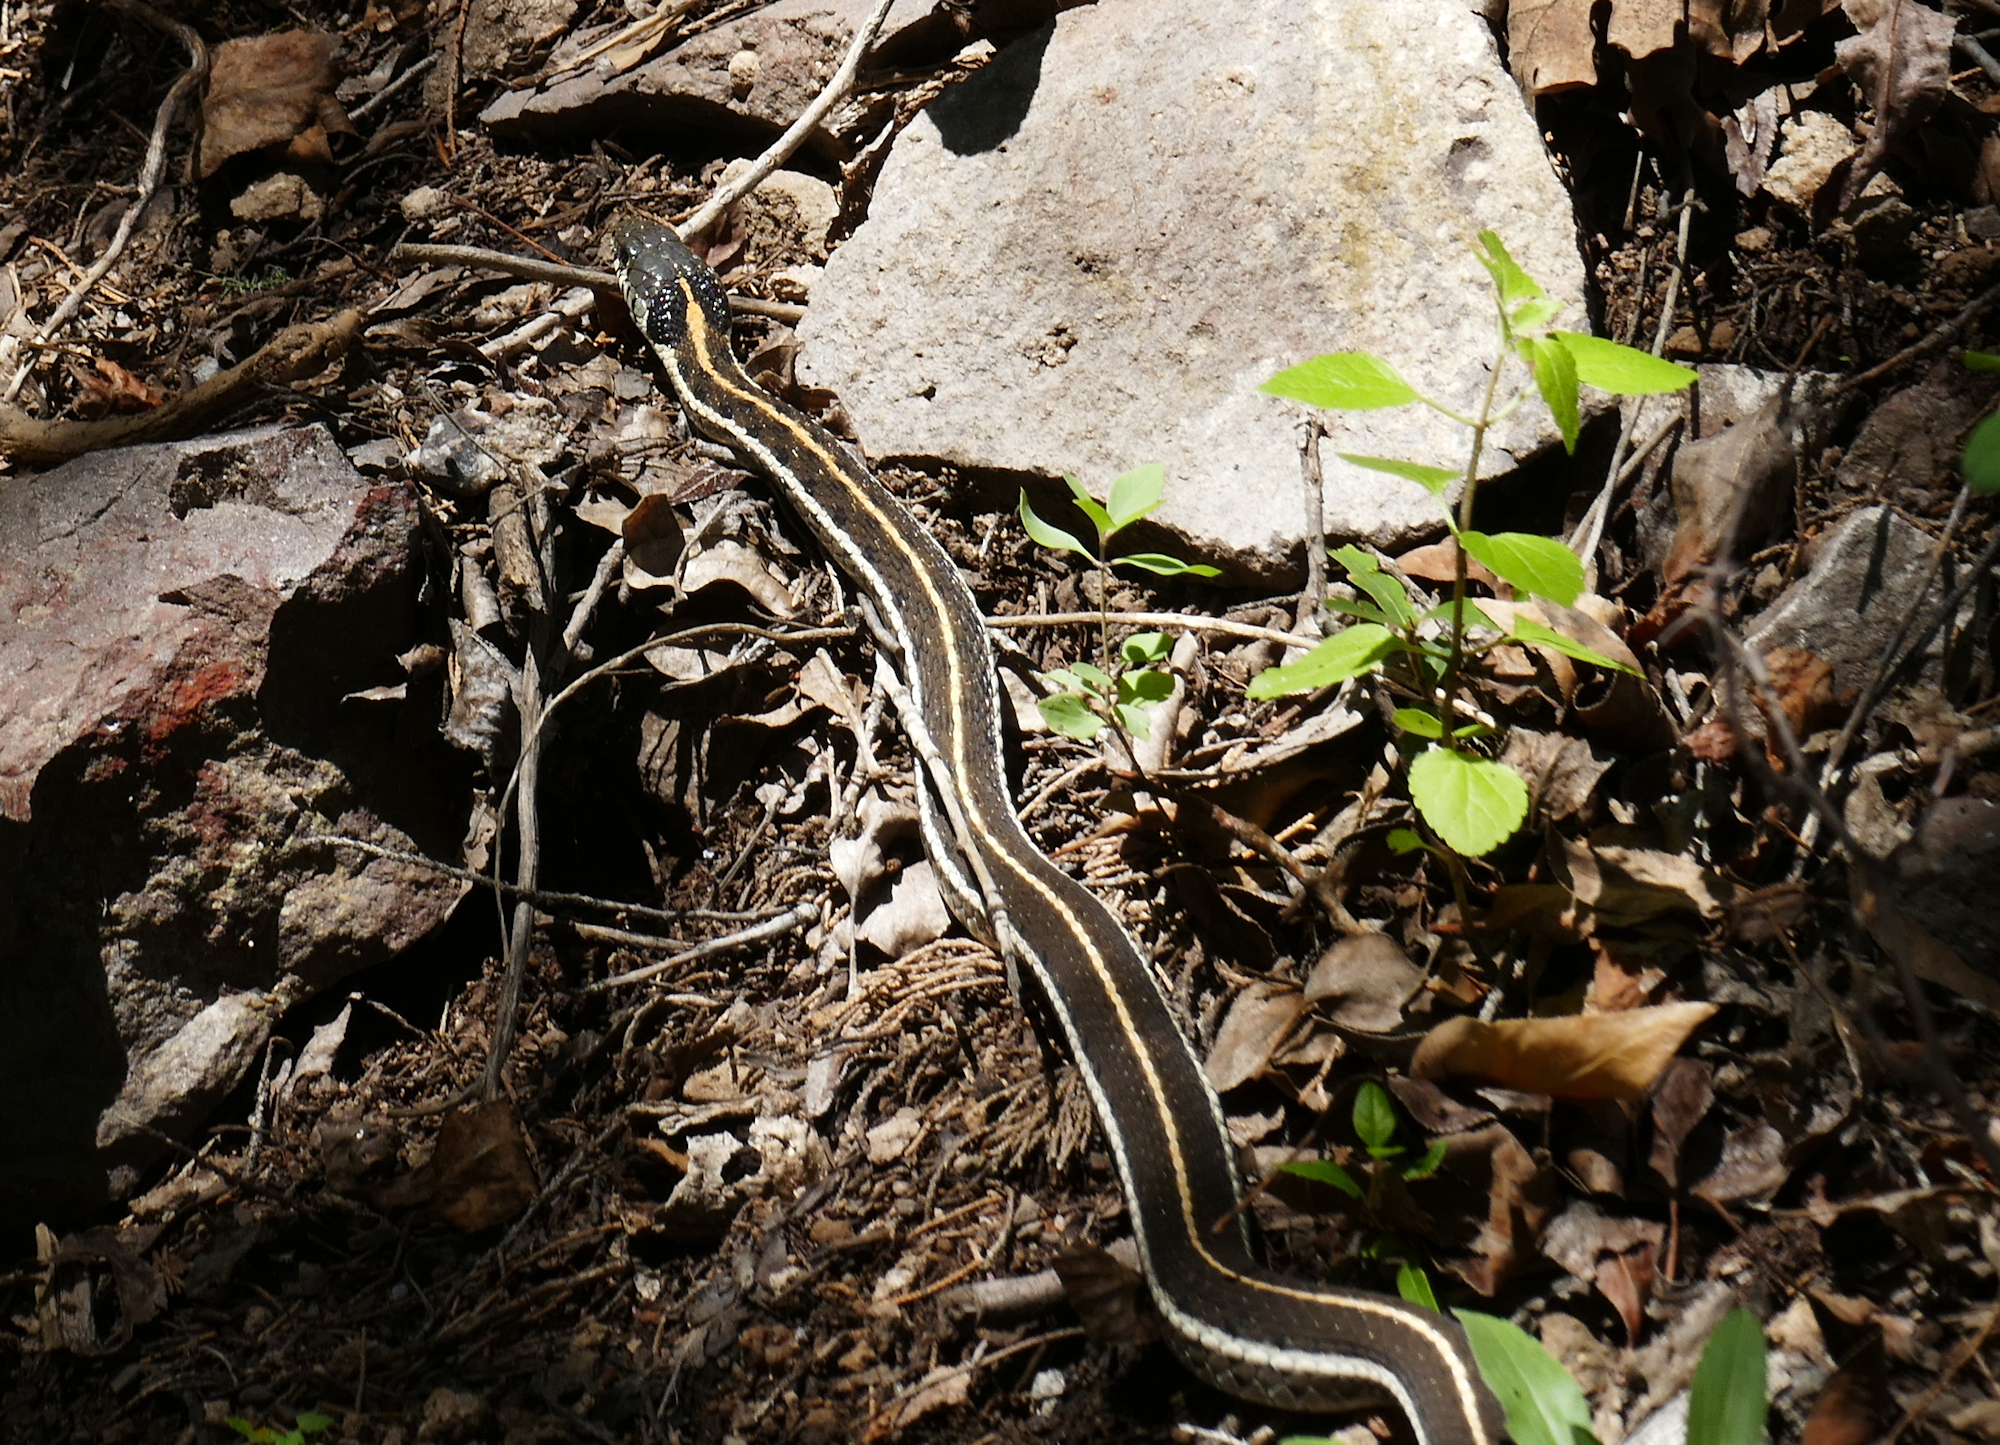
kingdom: Animalia
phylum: Chordata
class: Squamata
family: Colubridae
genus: Thamnophis
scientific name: Thamnophis cyrtopsis
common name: Black-necked gartersnake
